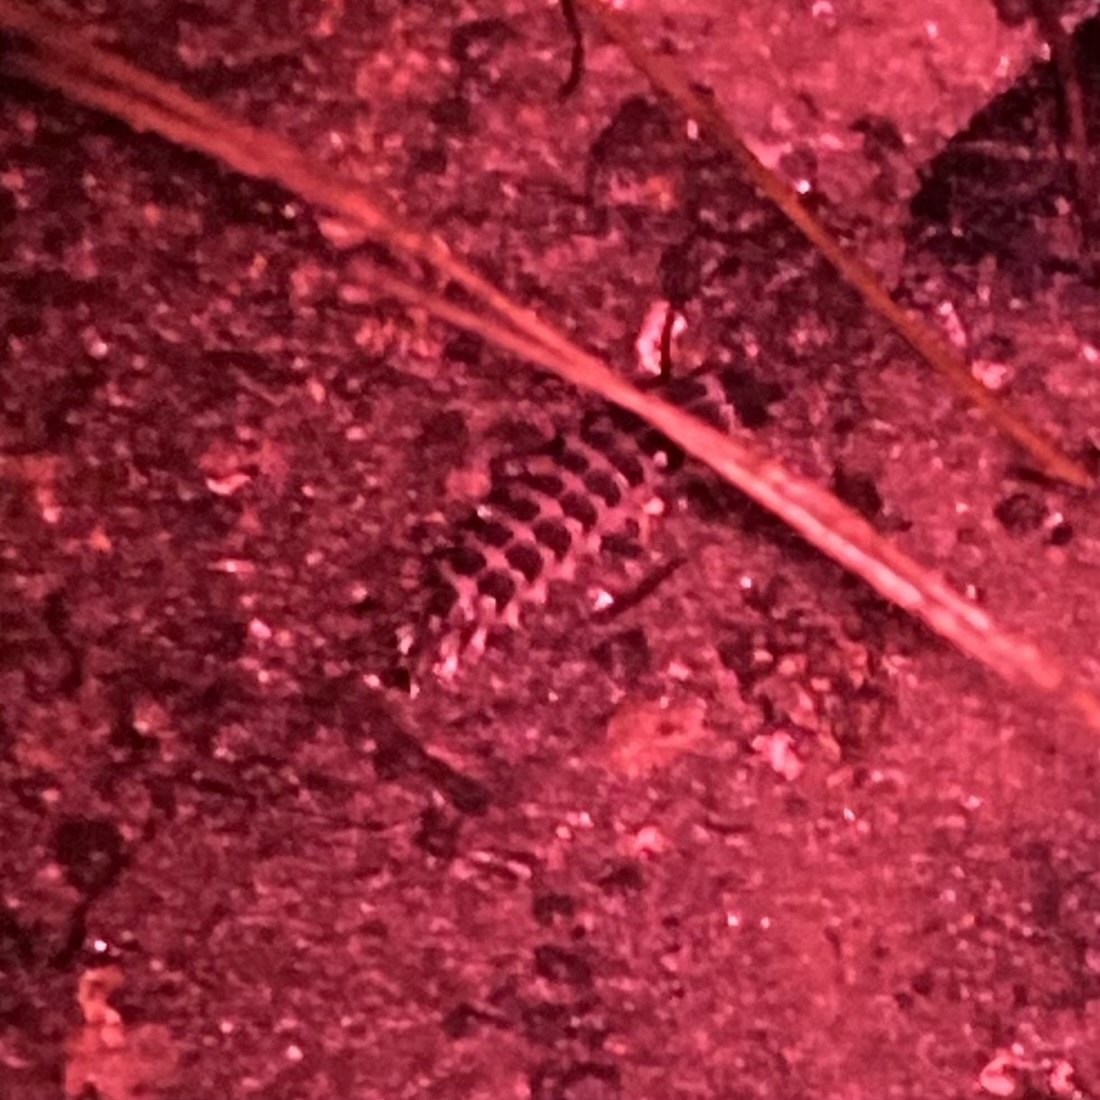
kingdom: Animalia
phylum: Arthropoda
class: Insecta
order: Coleoptera
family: Lampyridae
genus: Micronaspis
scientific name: Micronaspis floridana
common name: Florida intertidal firefly
